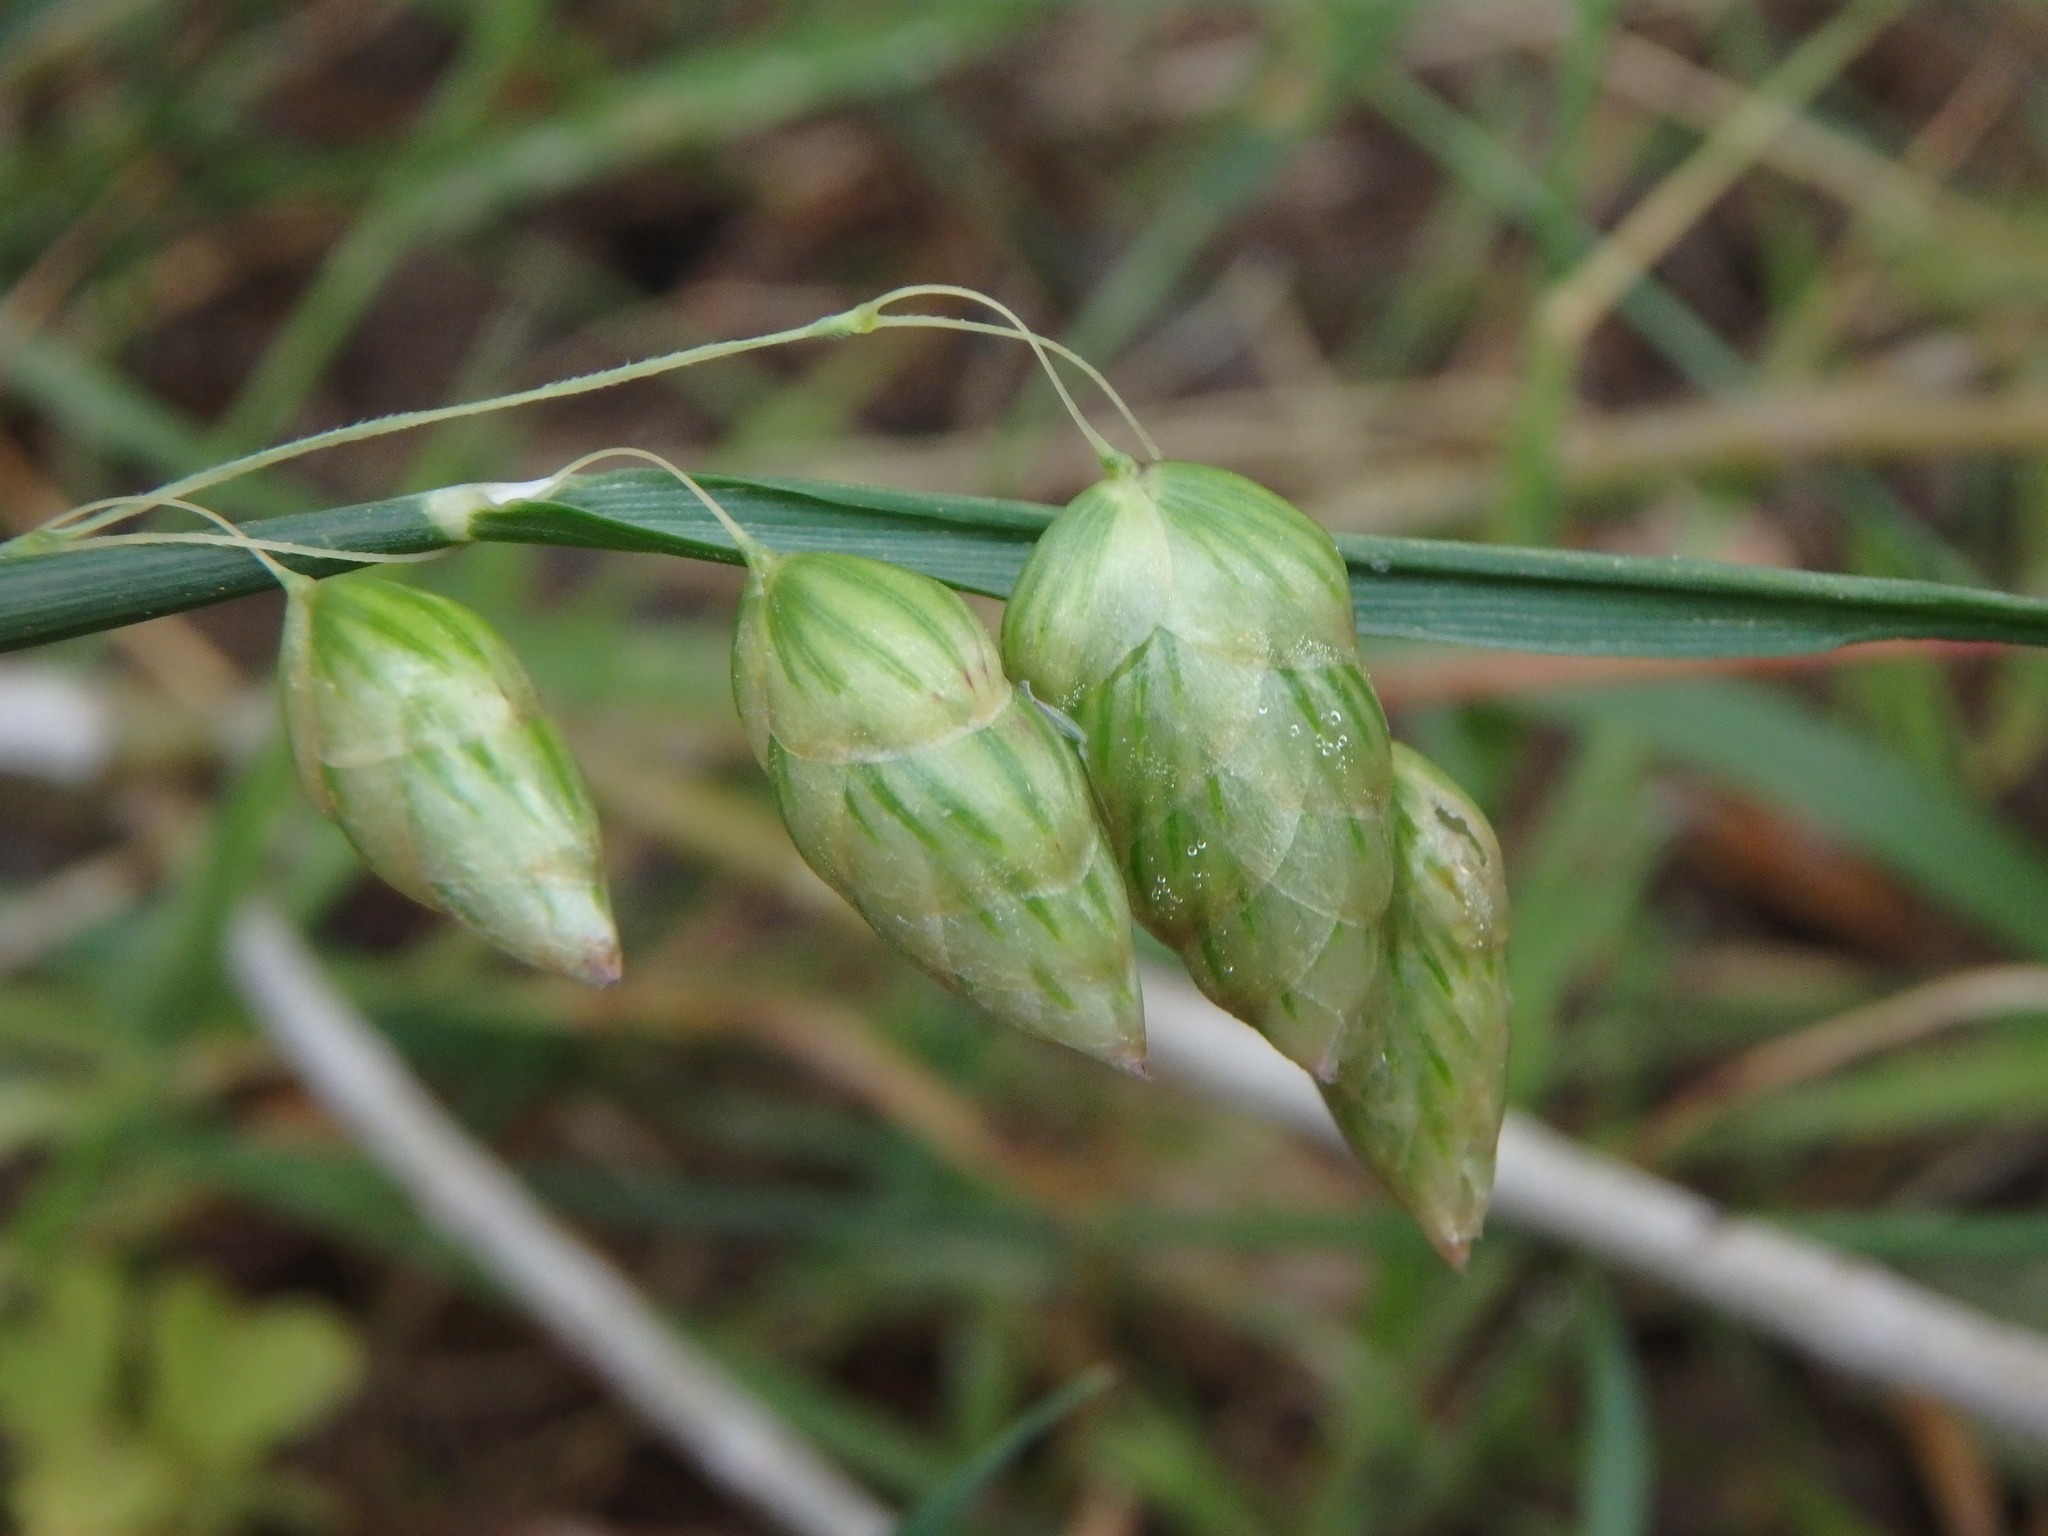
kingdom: Plantae
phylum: Tracheophyta
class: Liliopsida
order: Poales
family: Poaceae
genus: Briza
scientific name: Briza maxima
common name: Big quakinggrass
